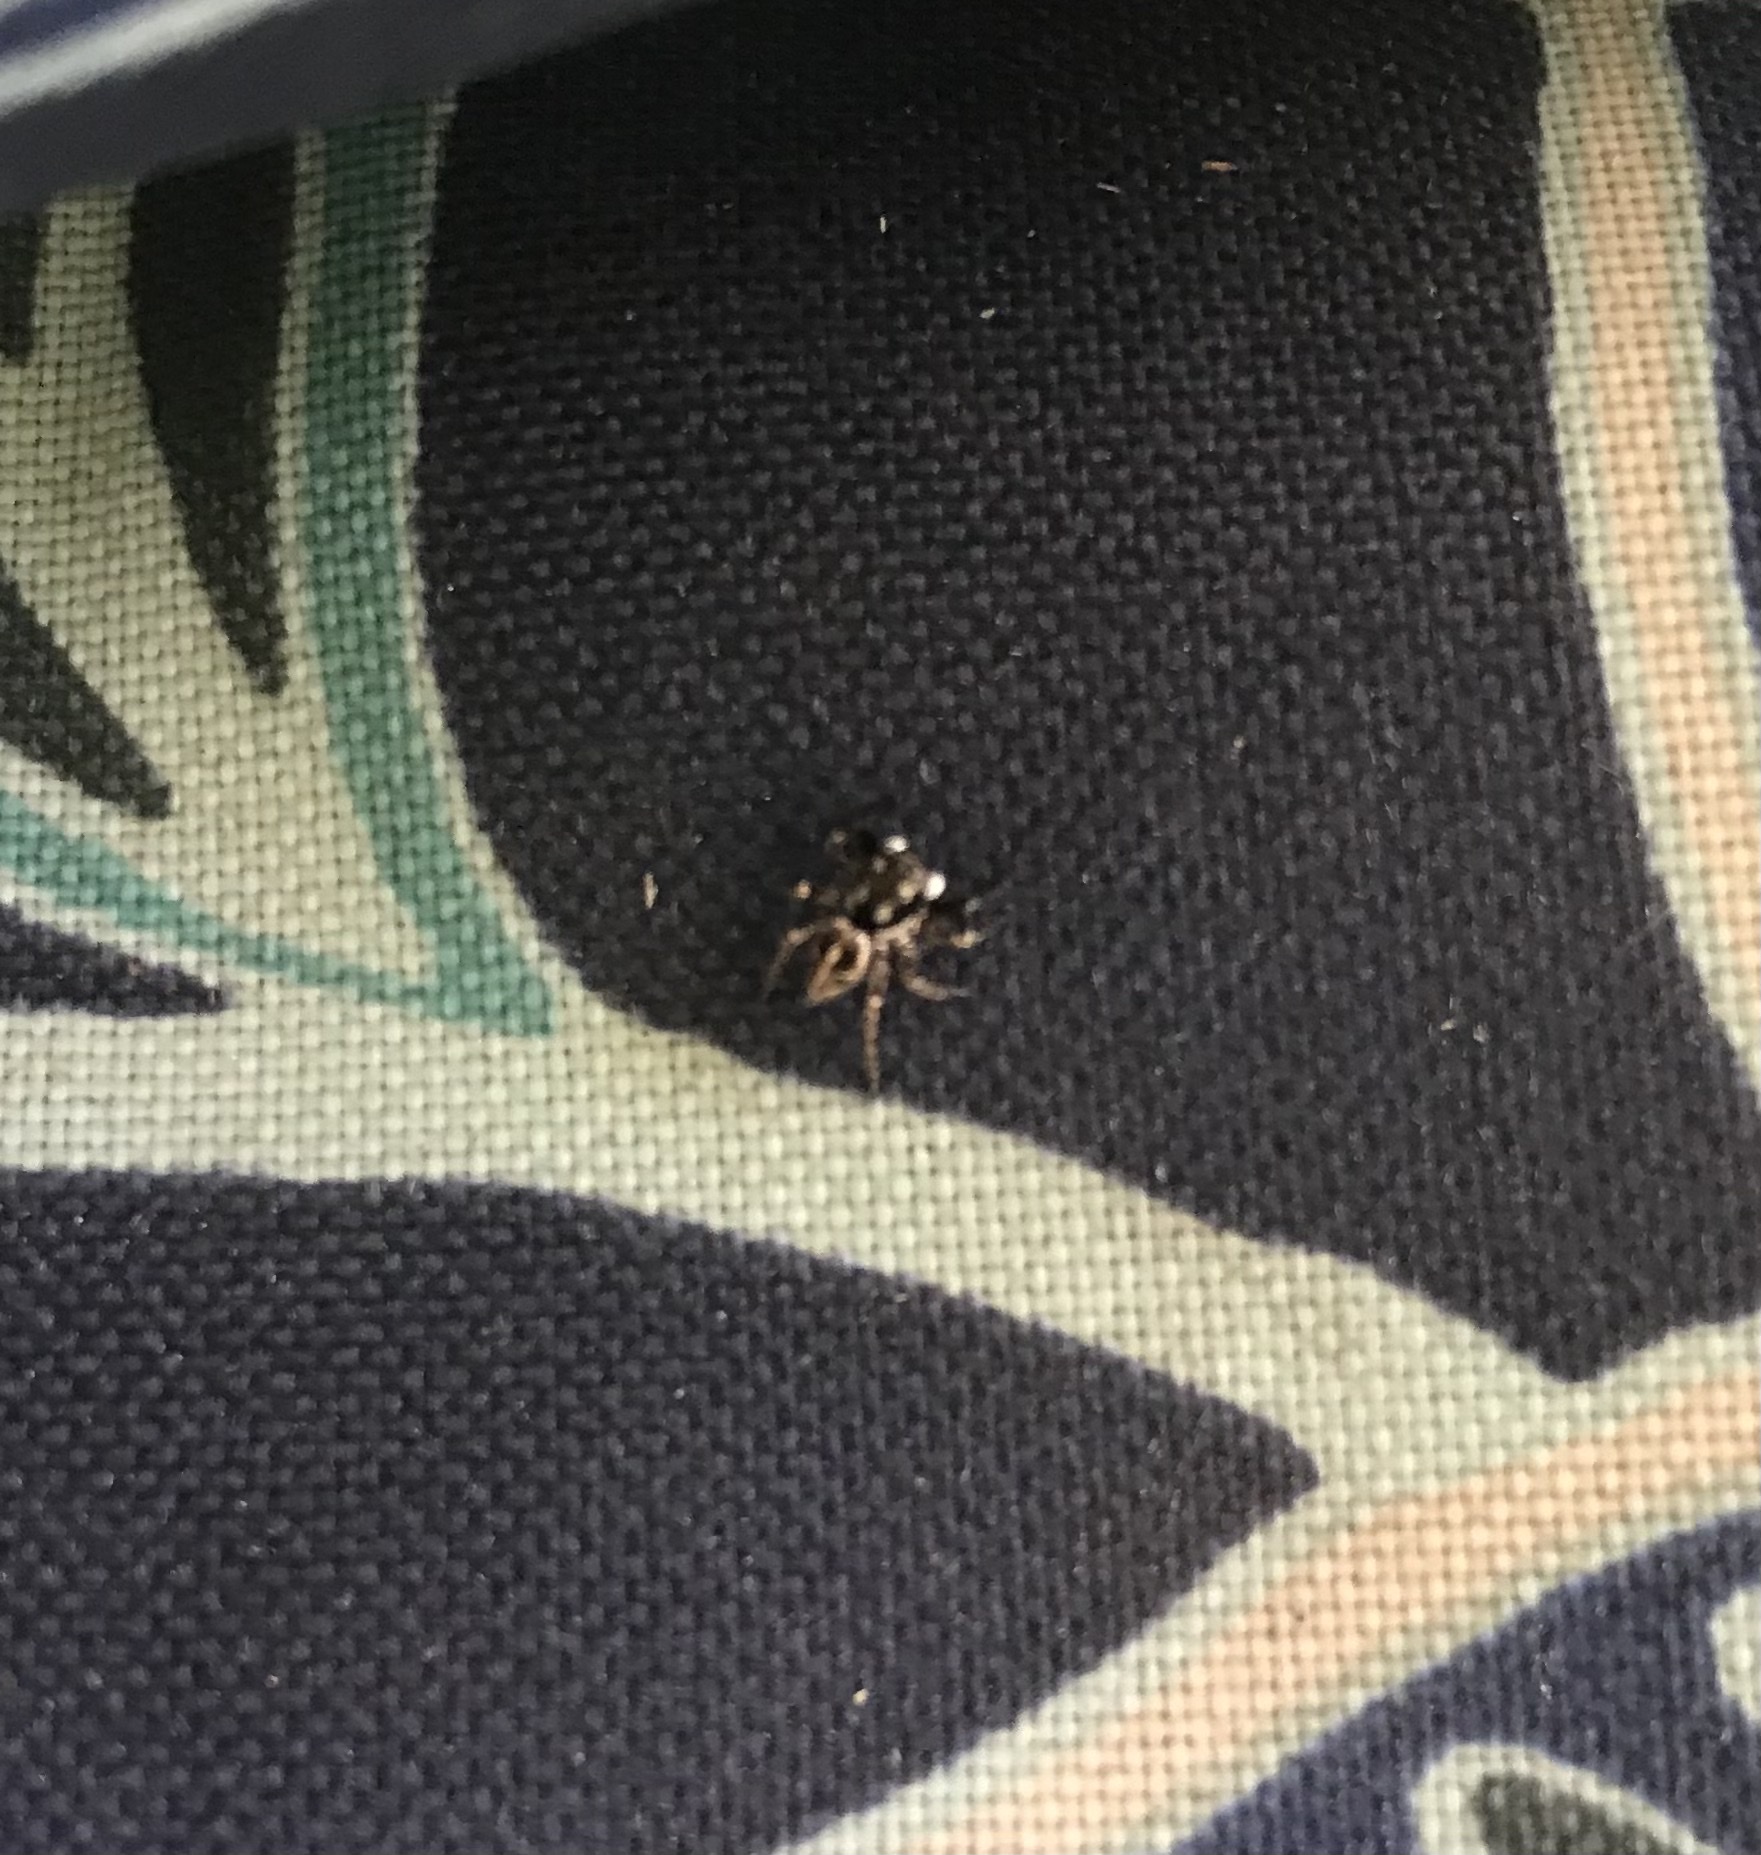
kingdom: Animalia
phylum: Arthropoda
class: Arachnida
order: Araneae
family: Salticidae
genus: Anasaitis
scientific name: Anasaitis canosa
